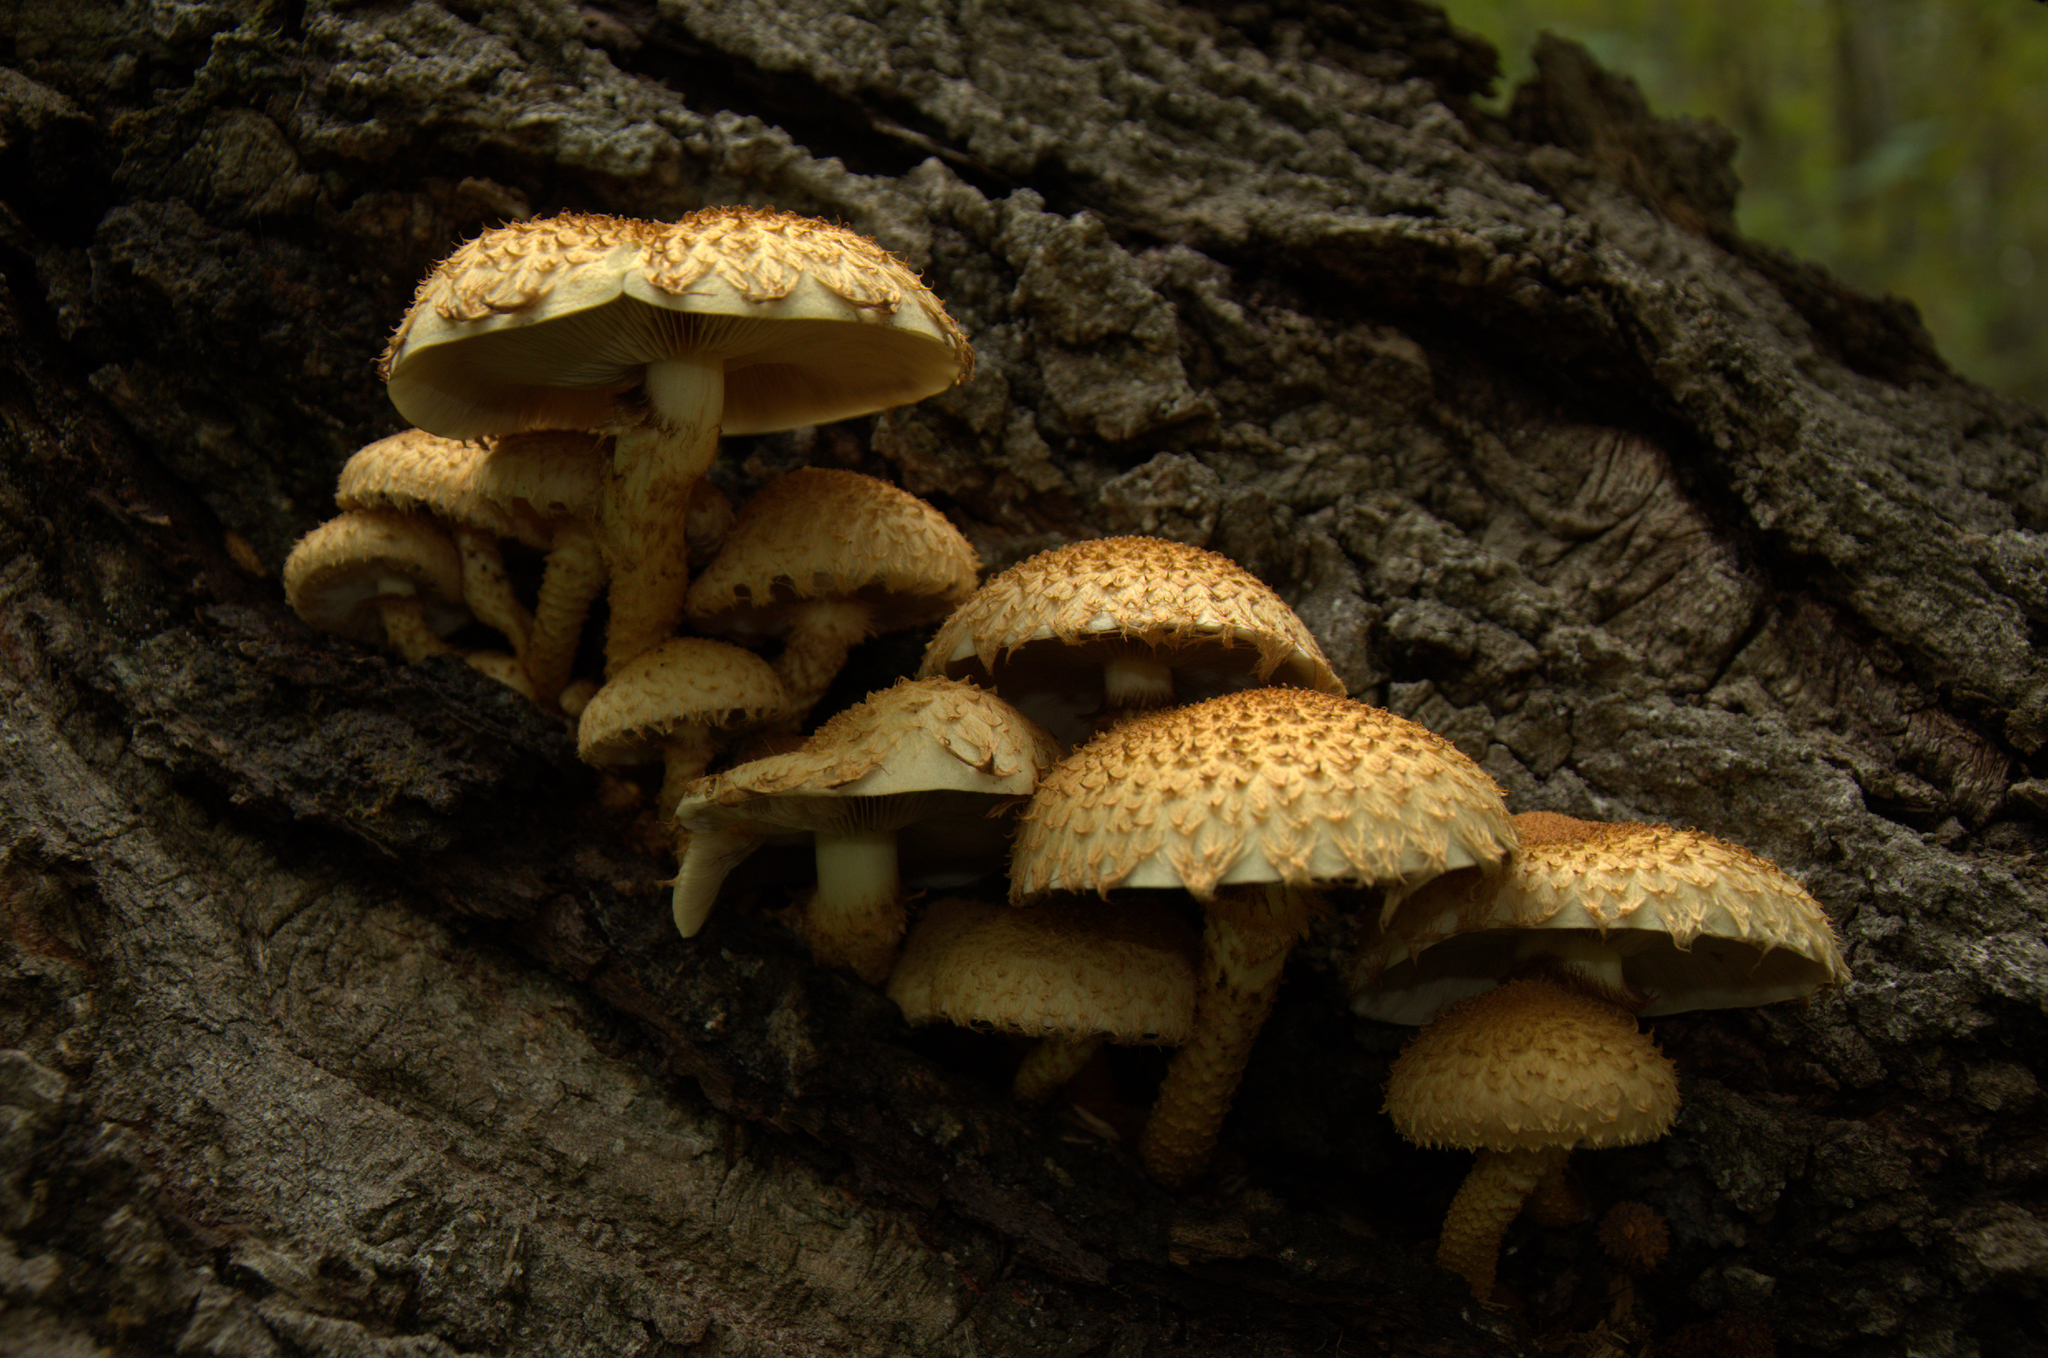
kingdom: Fungi
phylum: Basidiomycota
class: Agaricomycetes
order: Agaricales
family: Strophariaceae
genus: Pholiota
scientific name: Pholiota squarrosa
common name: Shaggy pholiota
